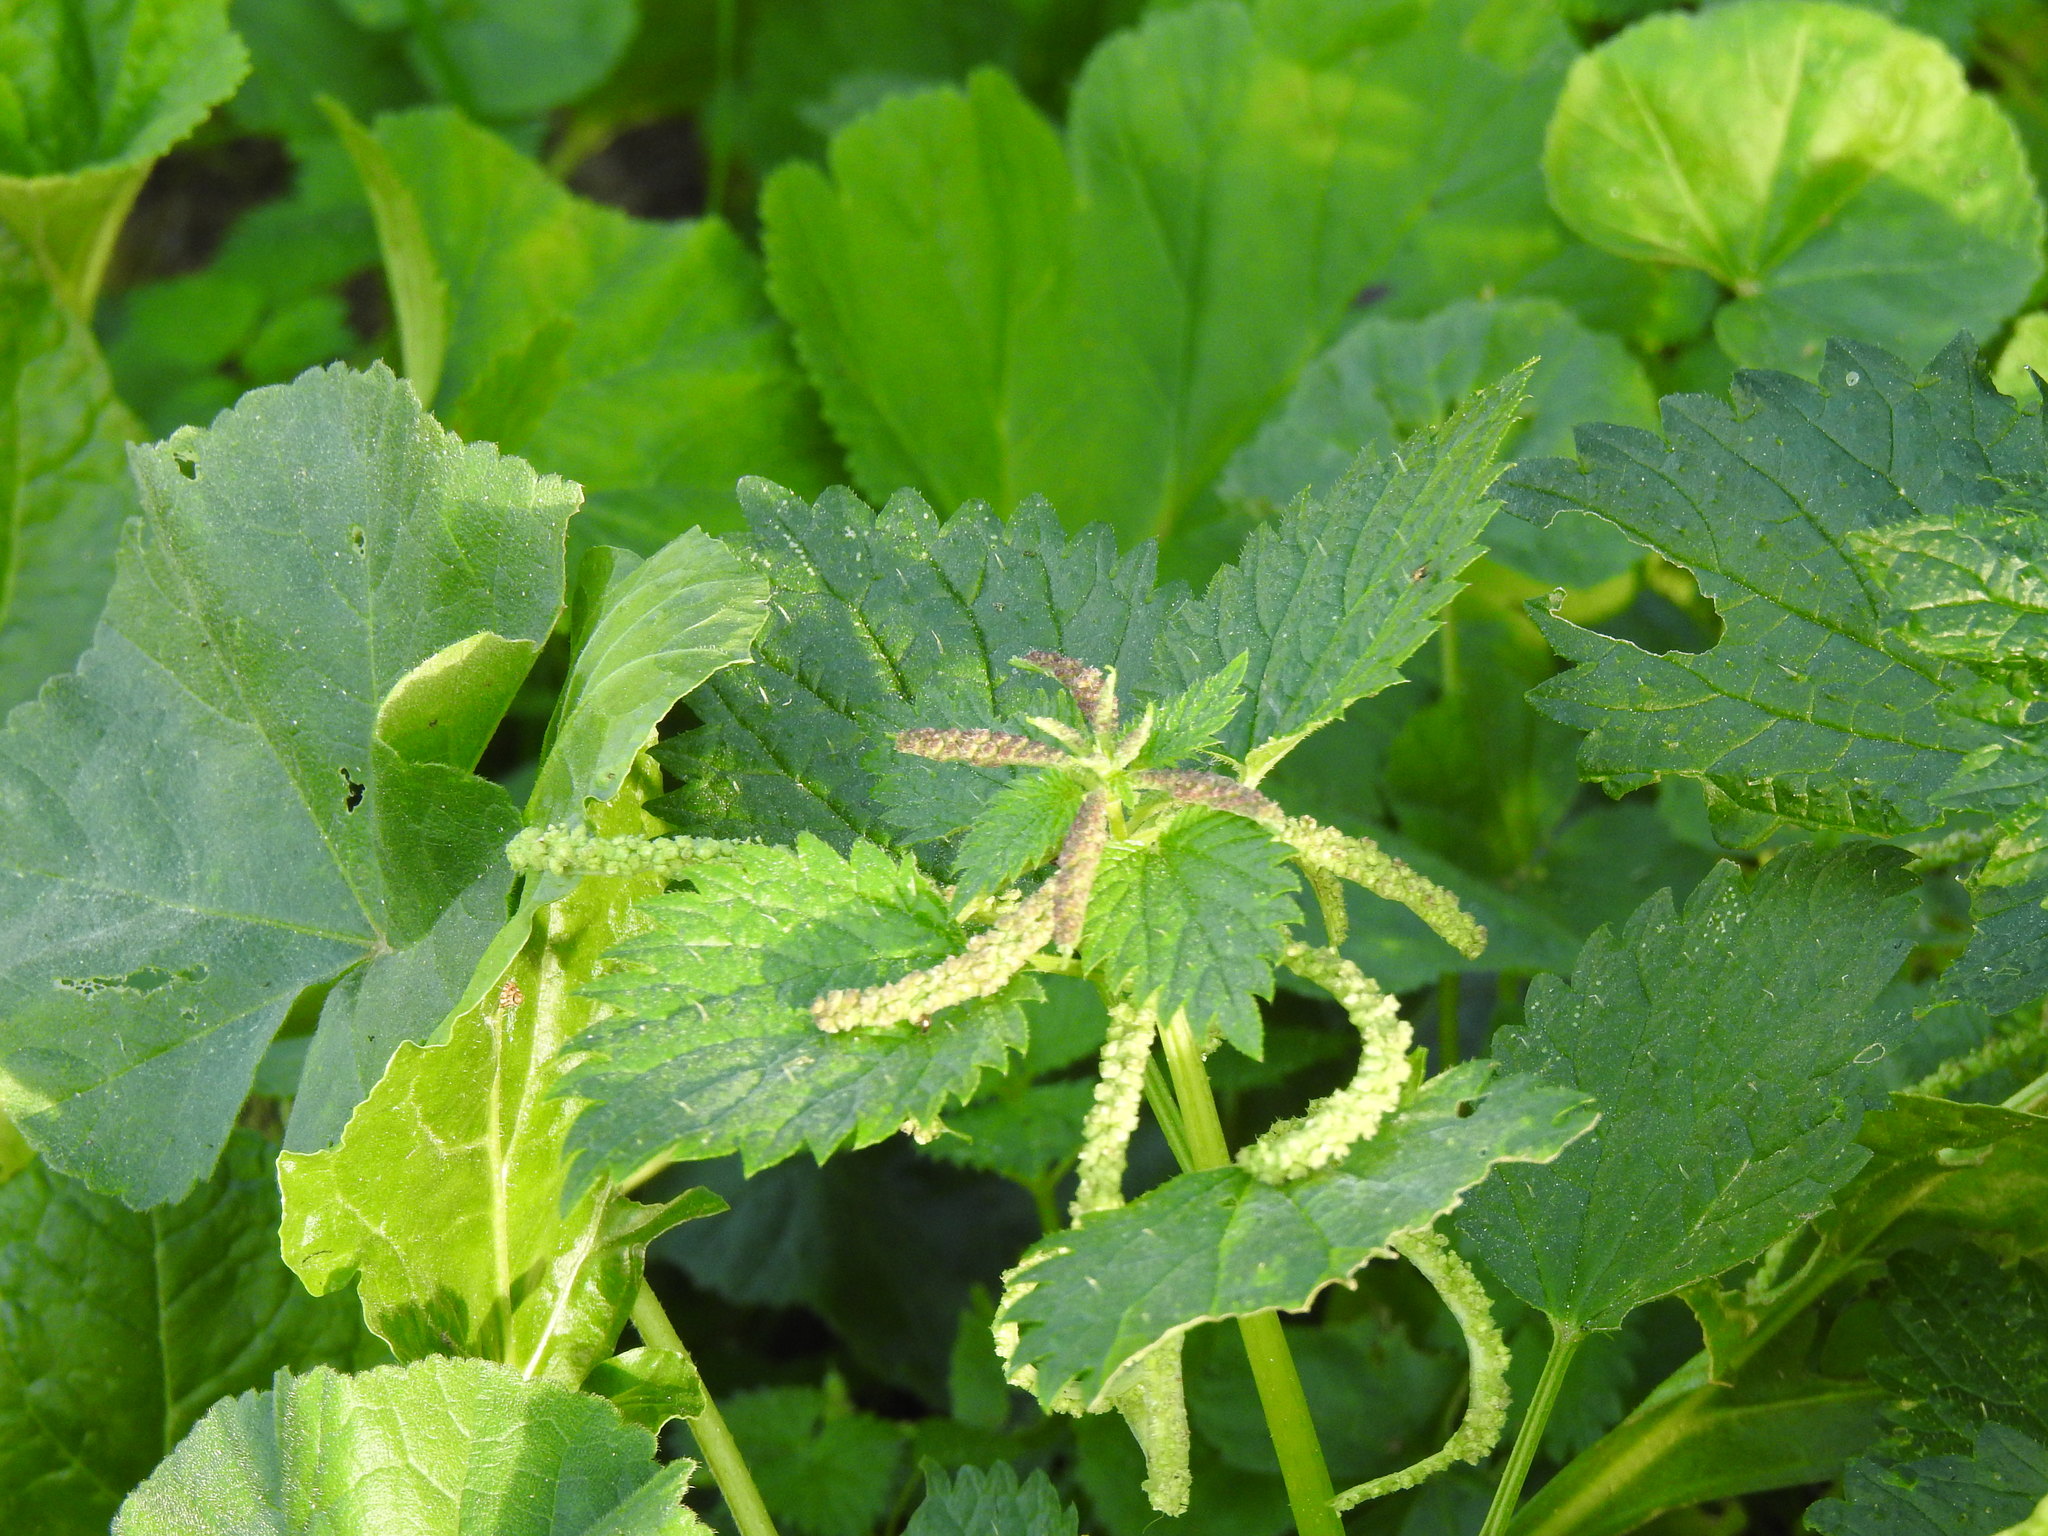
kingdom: Plantae
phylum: Tracheophyta
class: Magnoliopsida
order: Rosales
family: Urticaceae
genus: Urtica
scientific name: Urtica membranacea
